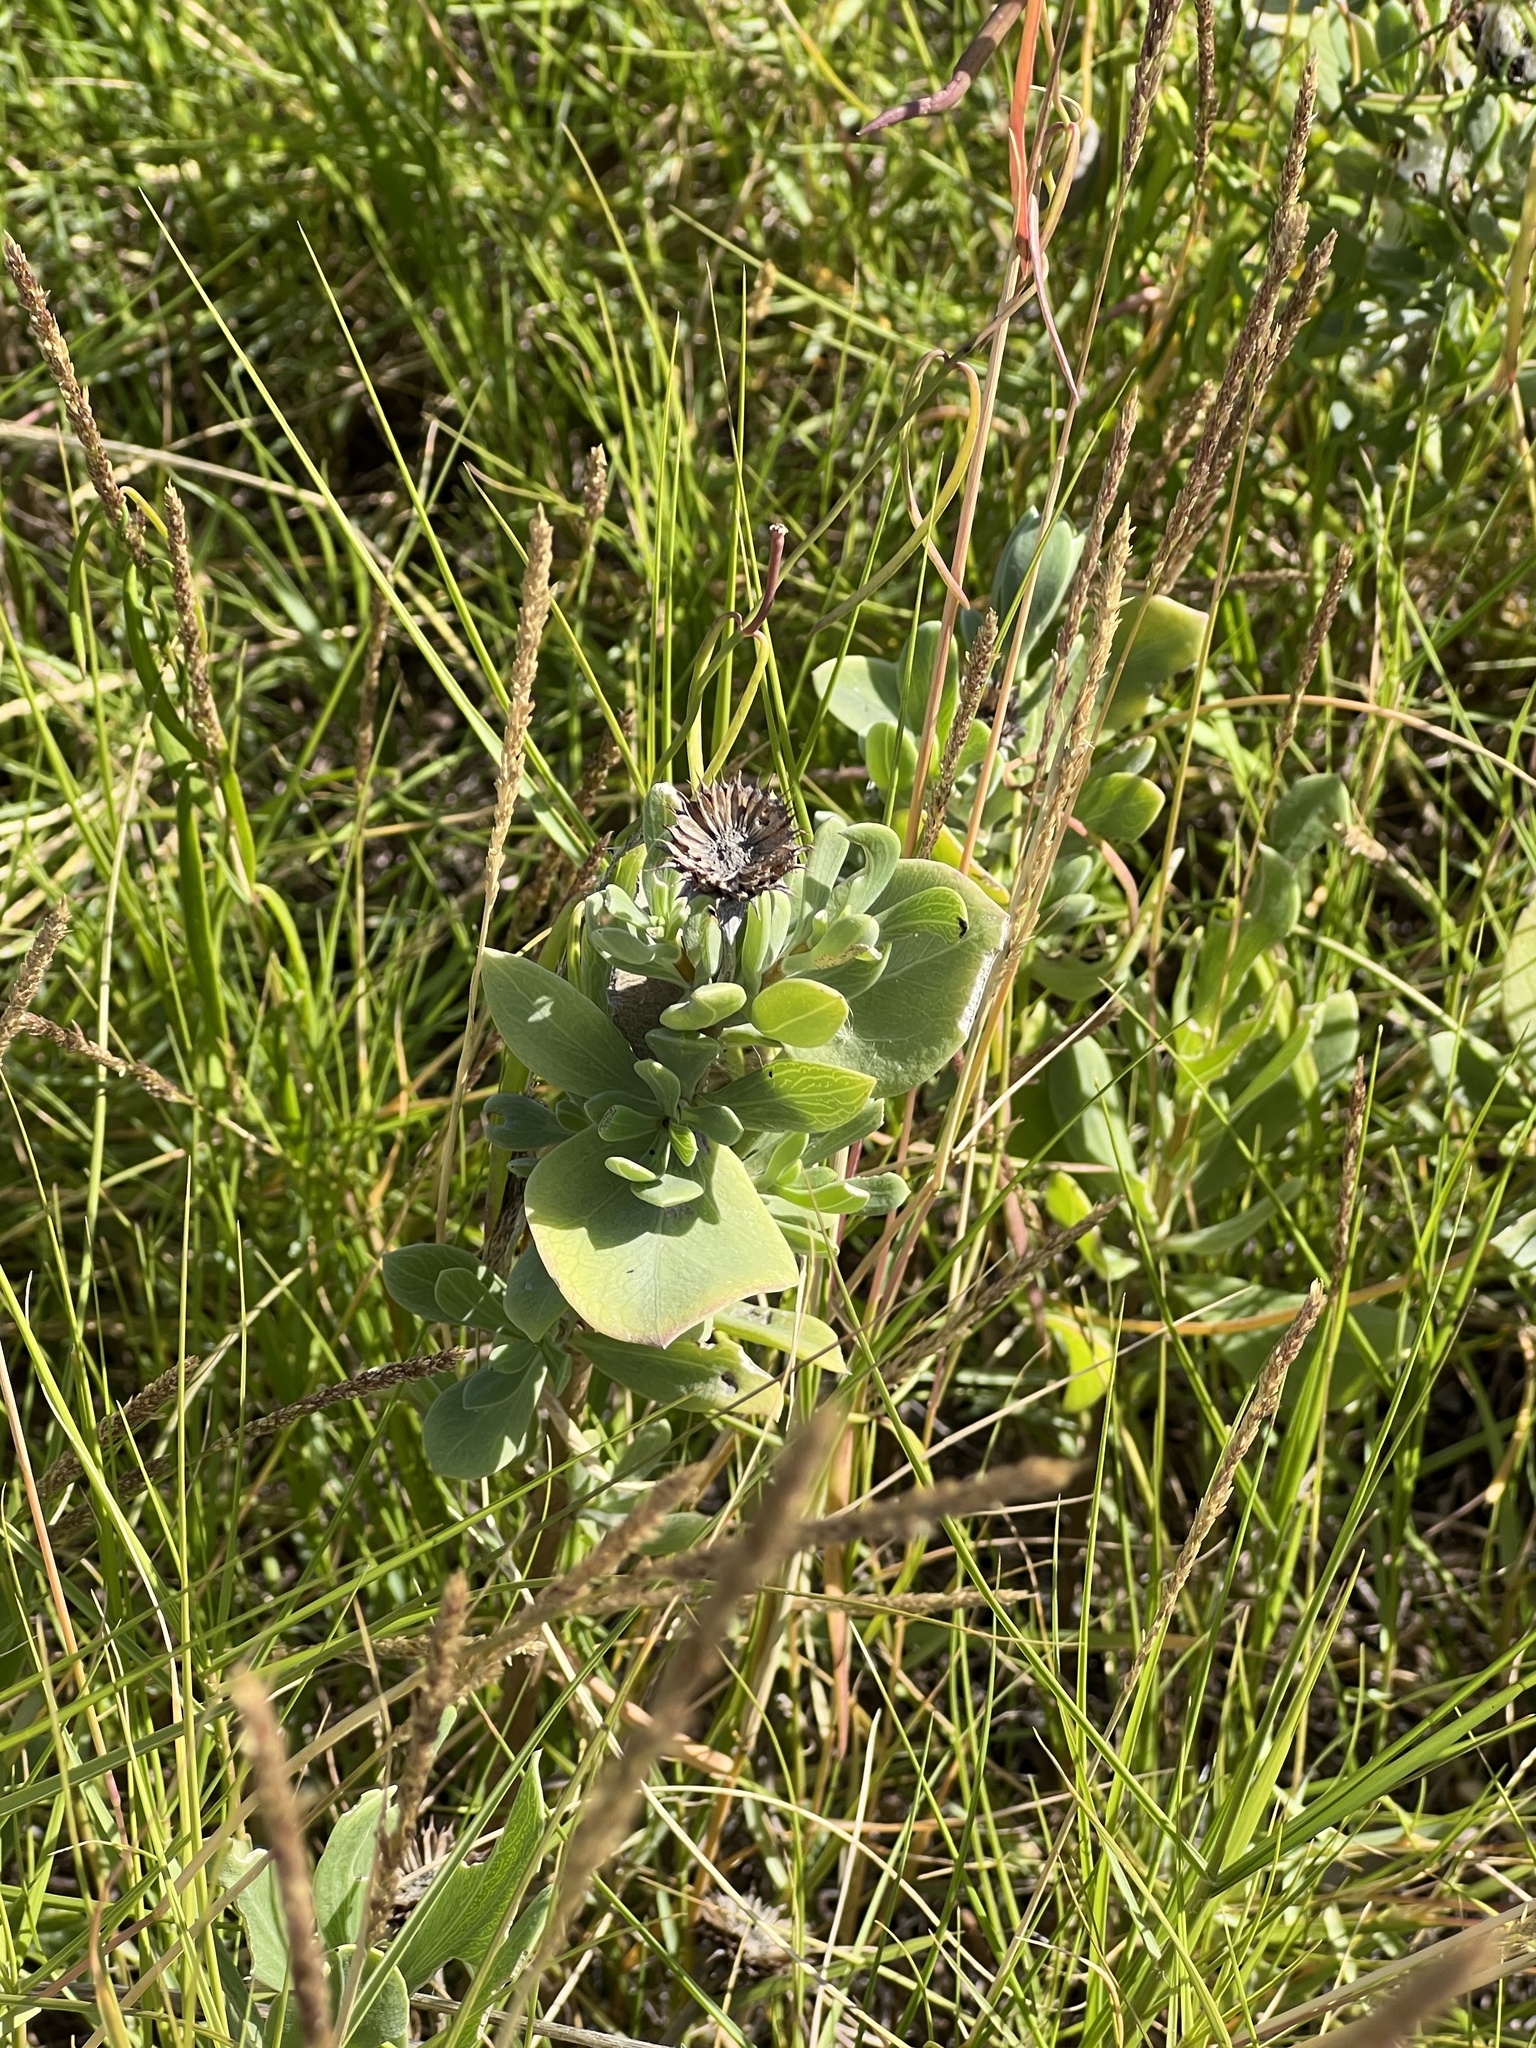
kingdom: Plantae
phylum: Tracheophyta
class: Magnoliopsida
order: Asterales
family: Asteraceae
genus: Borrichia
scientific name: Borrichia frutescens
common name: Sea oxeye
